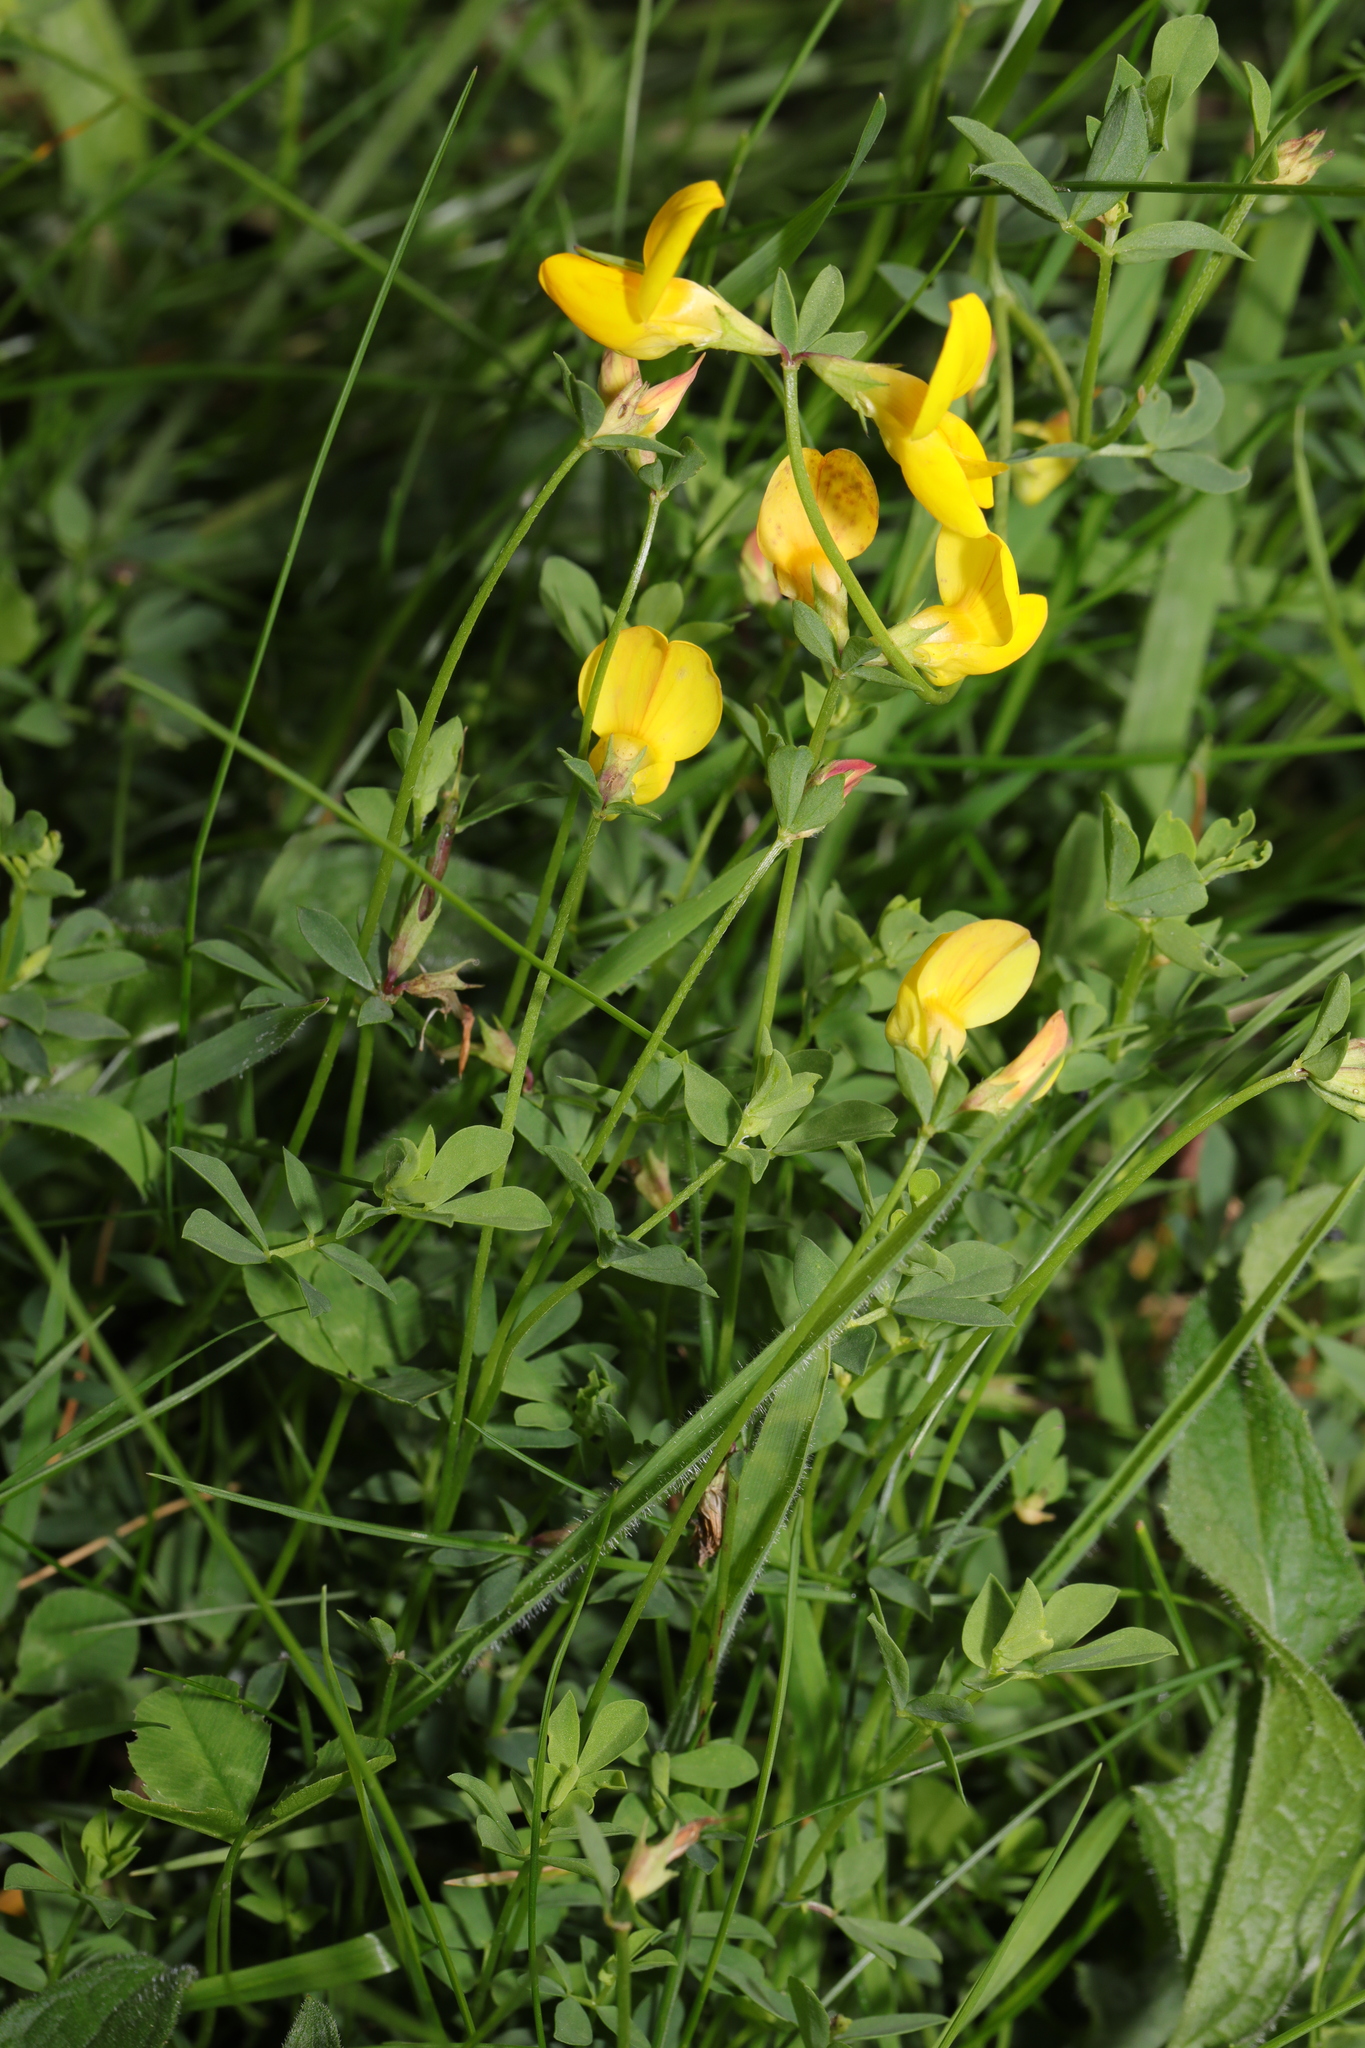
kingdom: Plantae
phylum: Tracheophyta
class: Magnoliopsida
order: Fabales
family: Fabaceae
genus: Lotus
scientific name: Lotus corniculatus
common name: Common bird's-foot-trefoil
